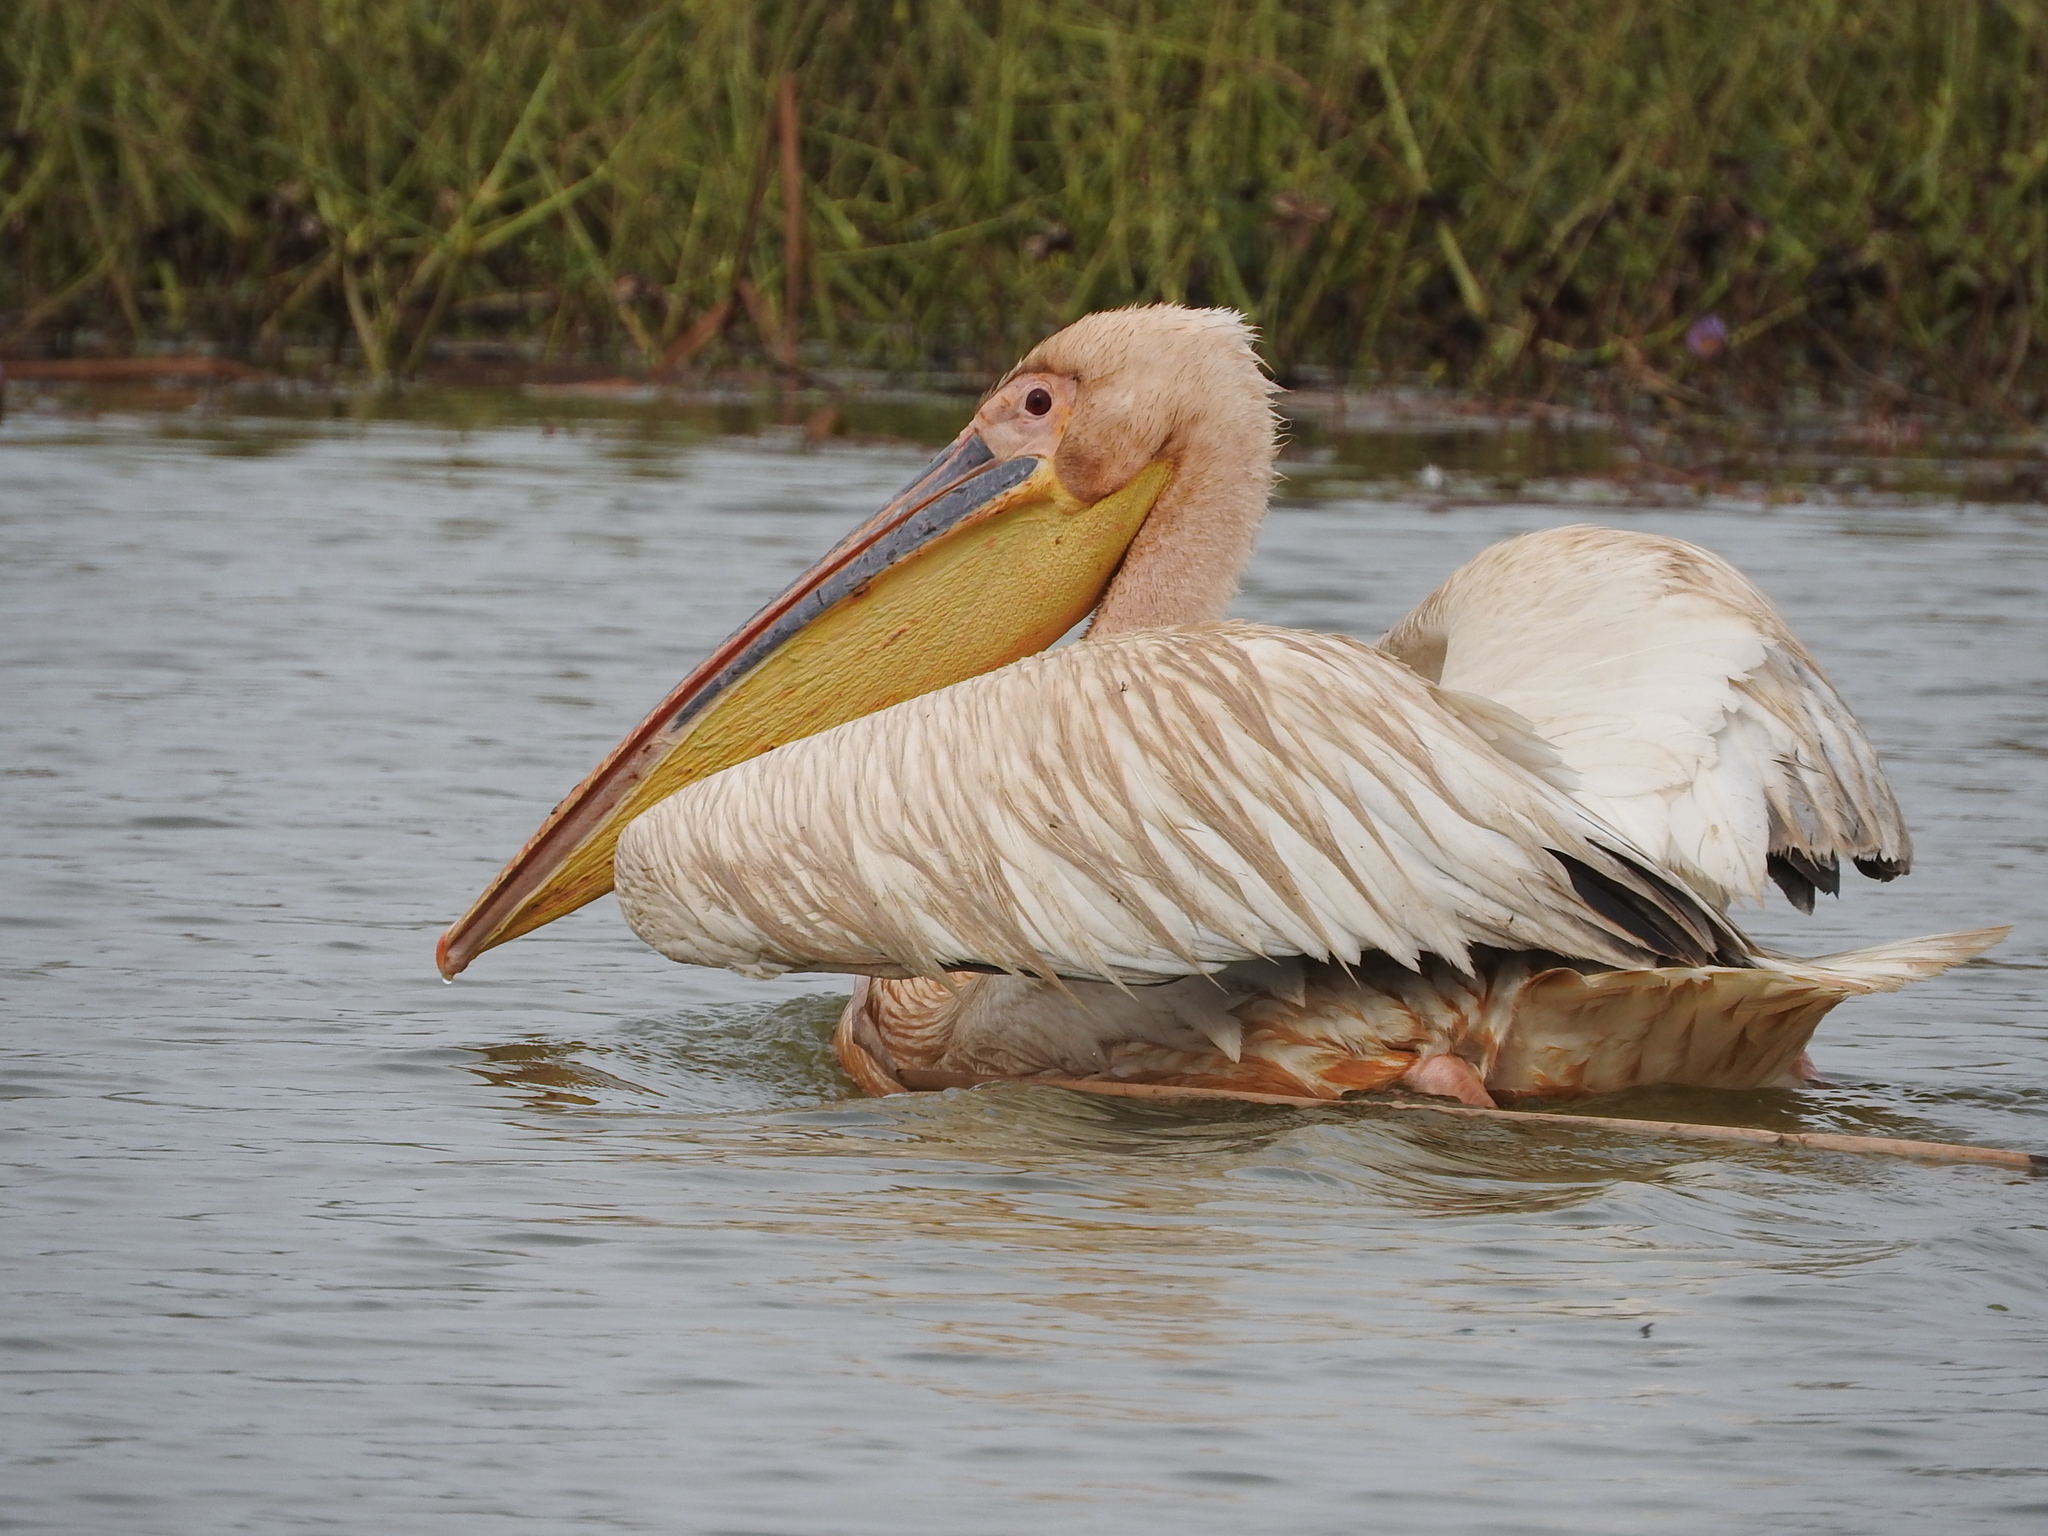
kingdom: Animalia
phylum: Chordata
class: Aves
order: Pelecaniformes
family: Pelecanidae
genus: Pelecanus
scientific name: Pelecanus onocrotalus
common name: Great white pelican
